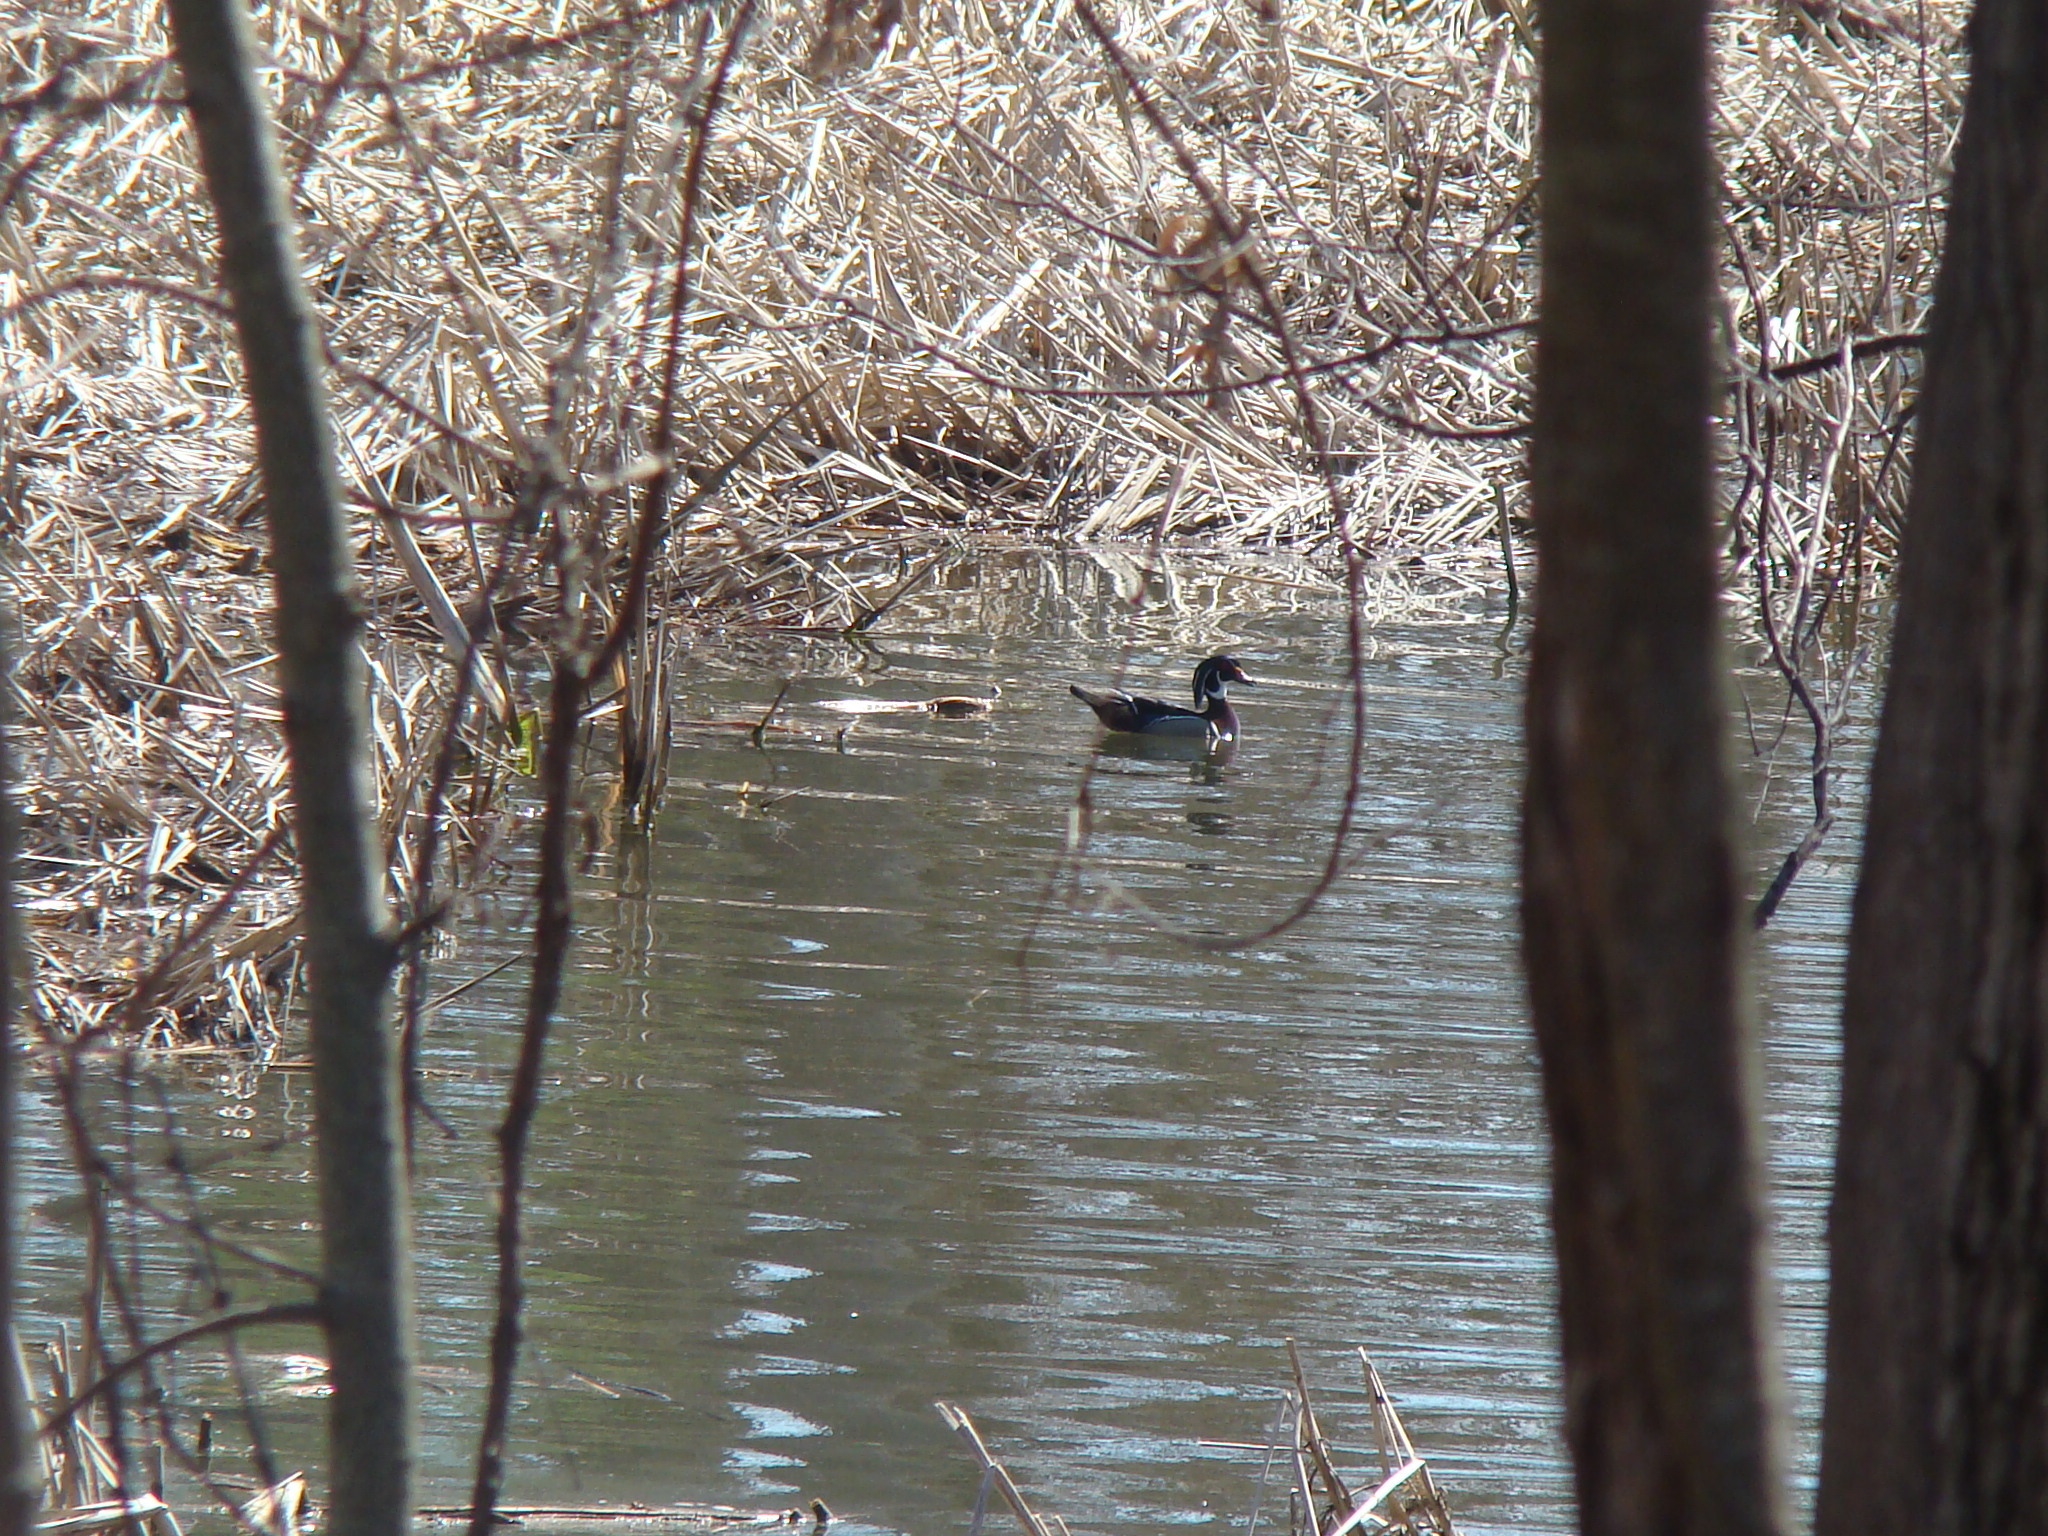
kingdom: Animalia
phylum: Chordata
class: Aves
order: Anseriformes
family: Anatidae
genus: Aix
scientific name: Aix sponsa
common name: Wood duck
